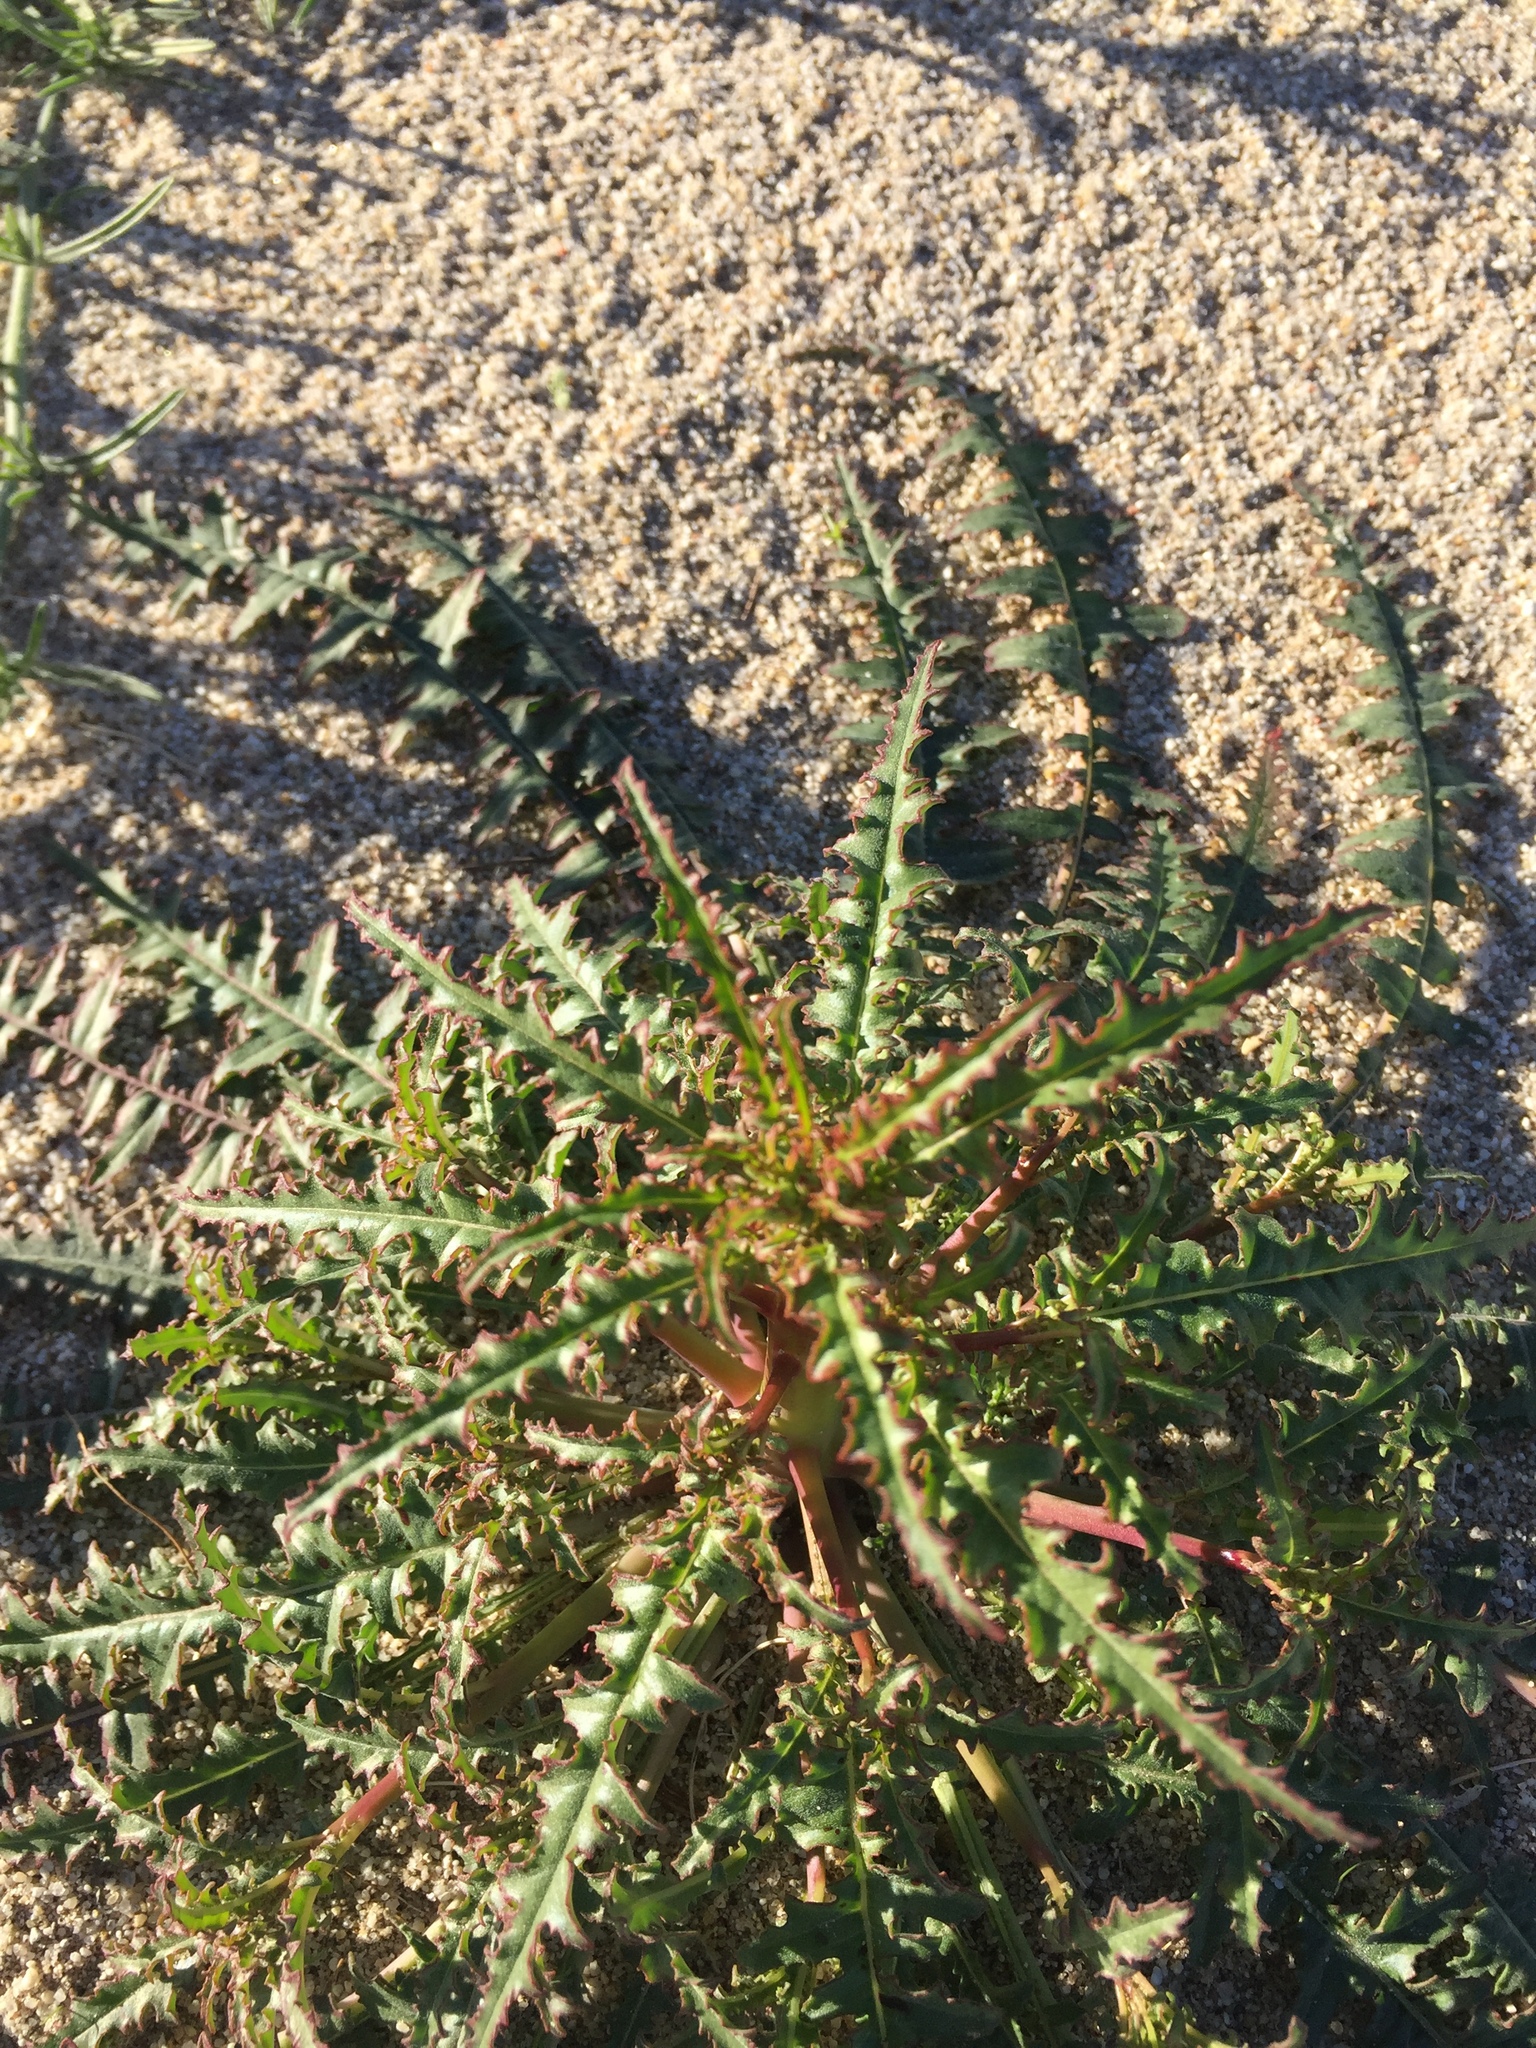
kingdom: Plantae
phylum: Tracheophyta
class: Magnoliopsida
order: Myrtales
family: Onagraceae
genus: Eulobus
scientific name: Eulobus californicus
